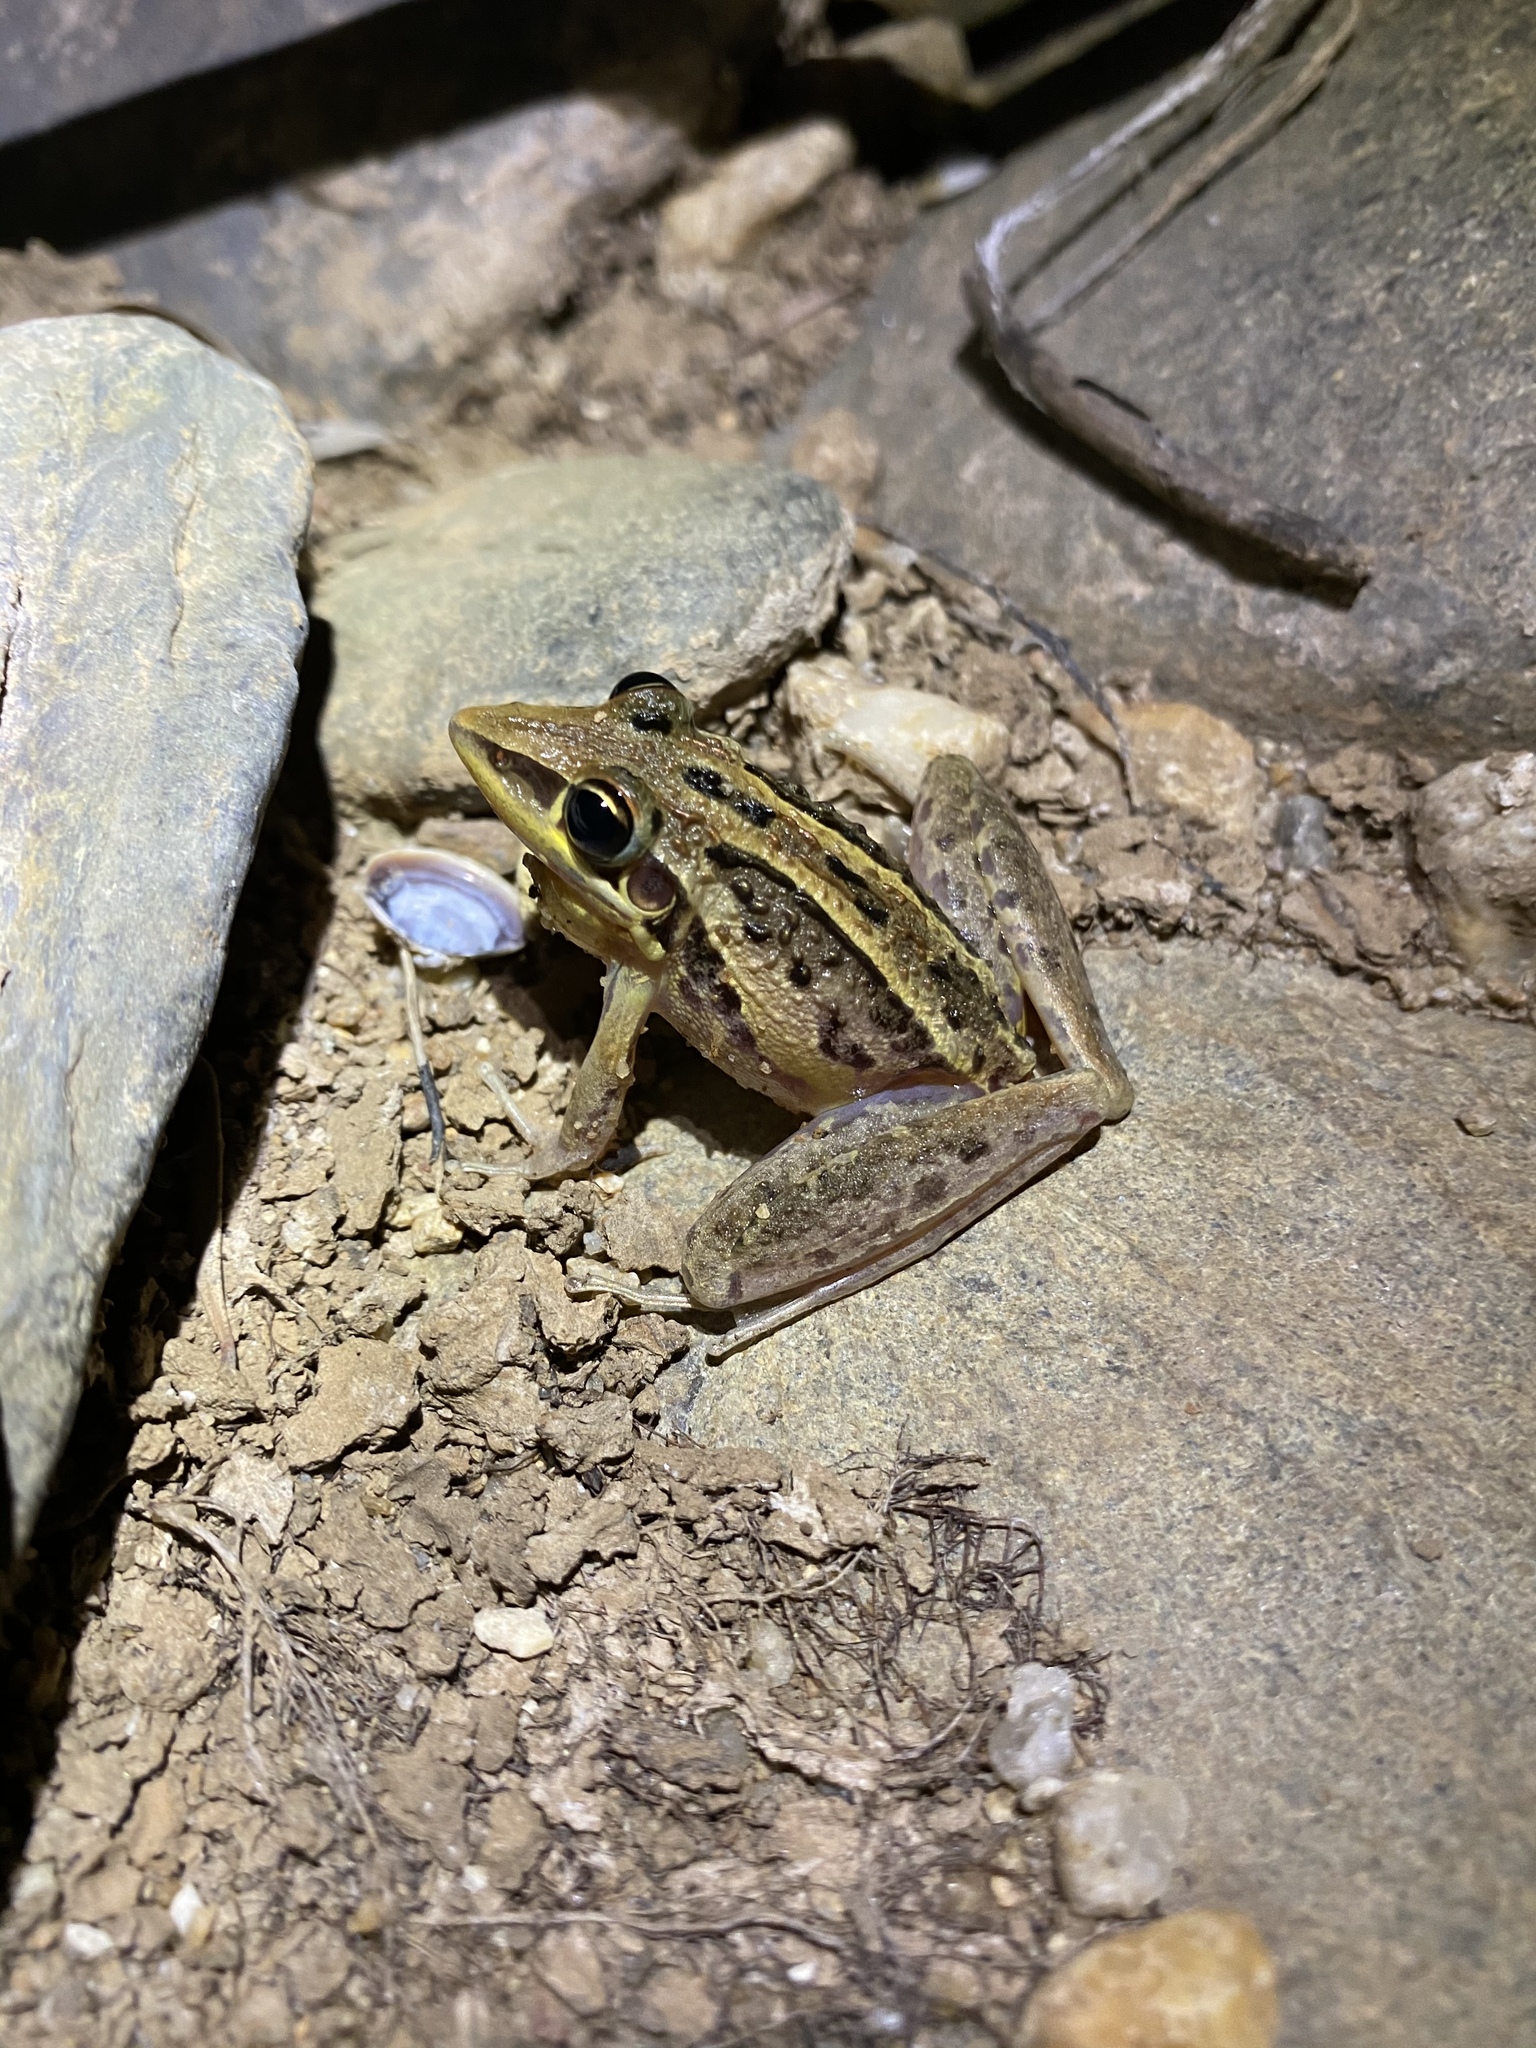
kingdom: Animalia
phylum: Chordata
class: Amphibia
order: Anura
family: Pelodryadidae
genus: Litoria
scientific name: Litoria nasuta
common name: Rocket frog
